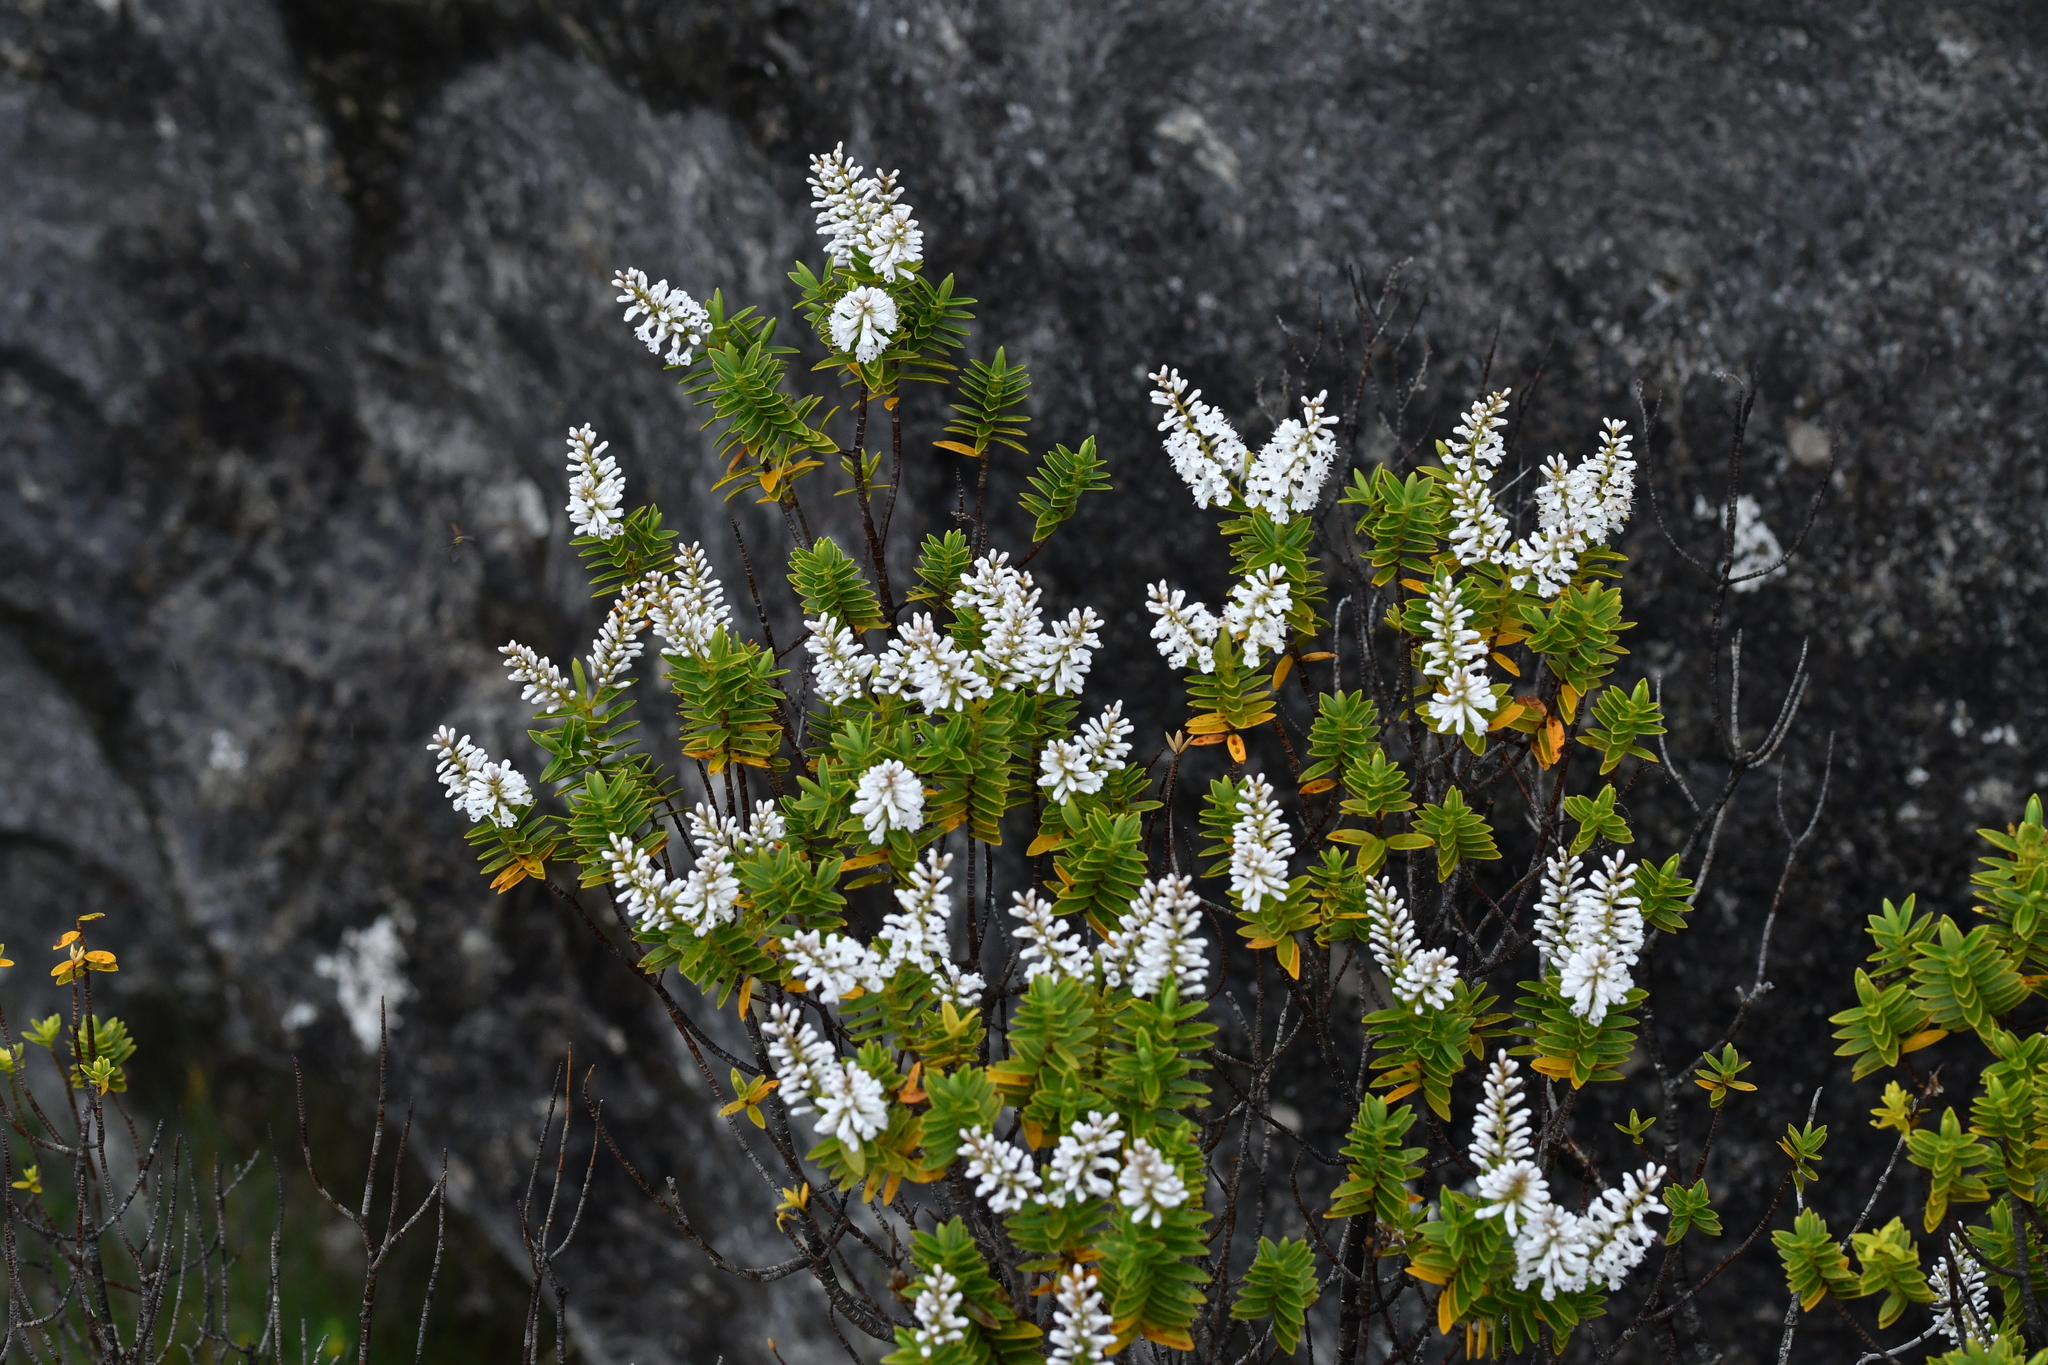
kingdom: Plantae
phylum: Tracheophyta
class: Magnoliopsida
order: Lamiales
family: Plantaginaceae
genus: Veronica
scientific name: Veronica rakaiensis
